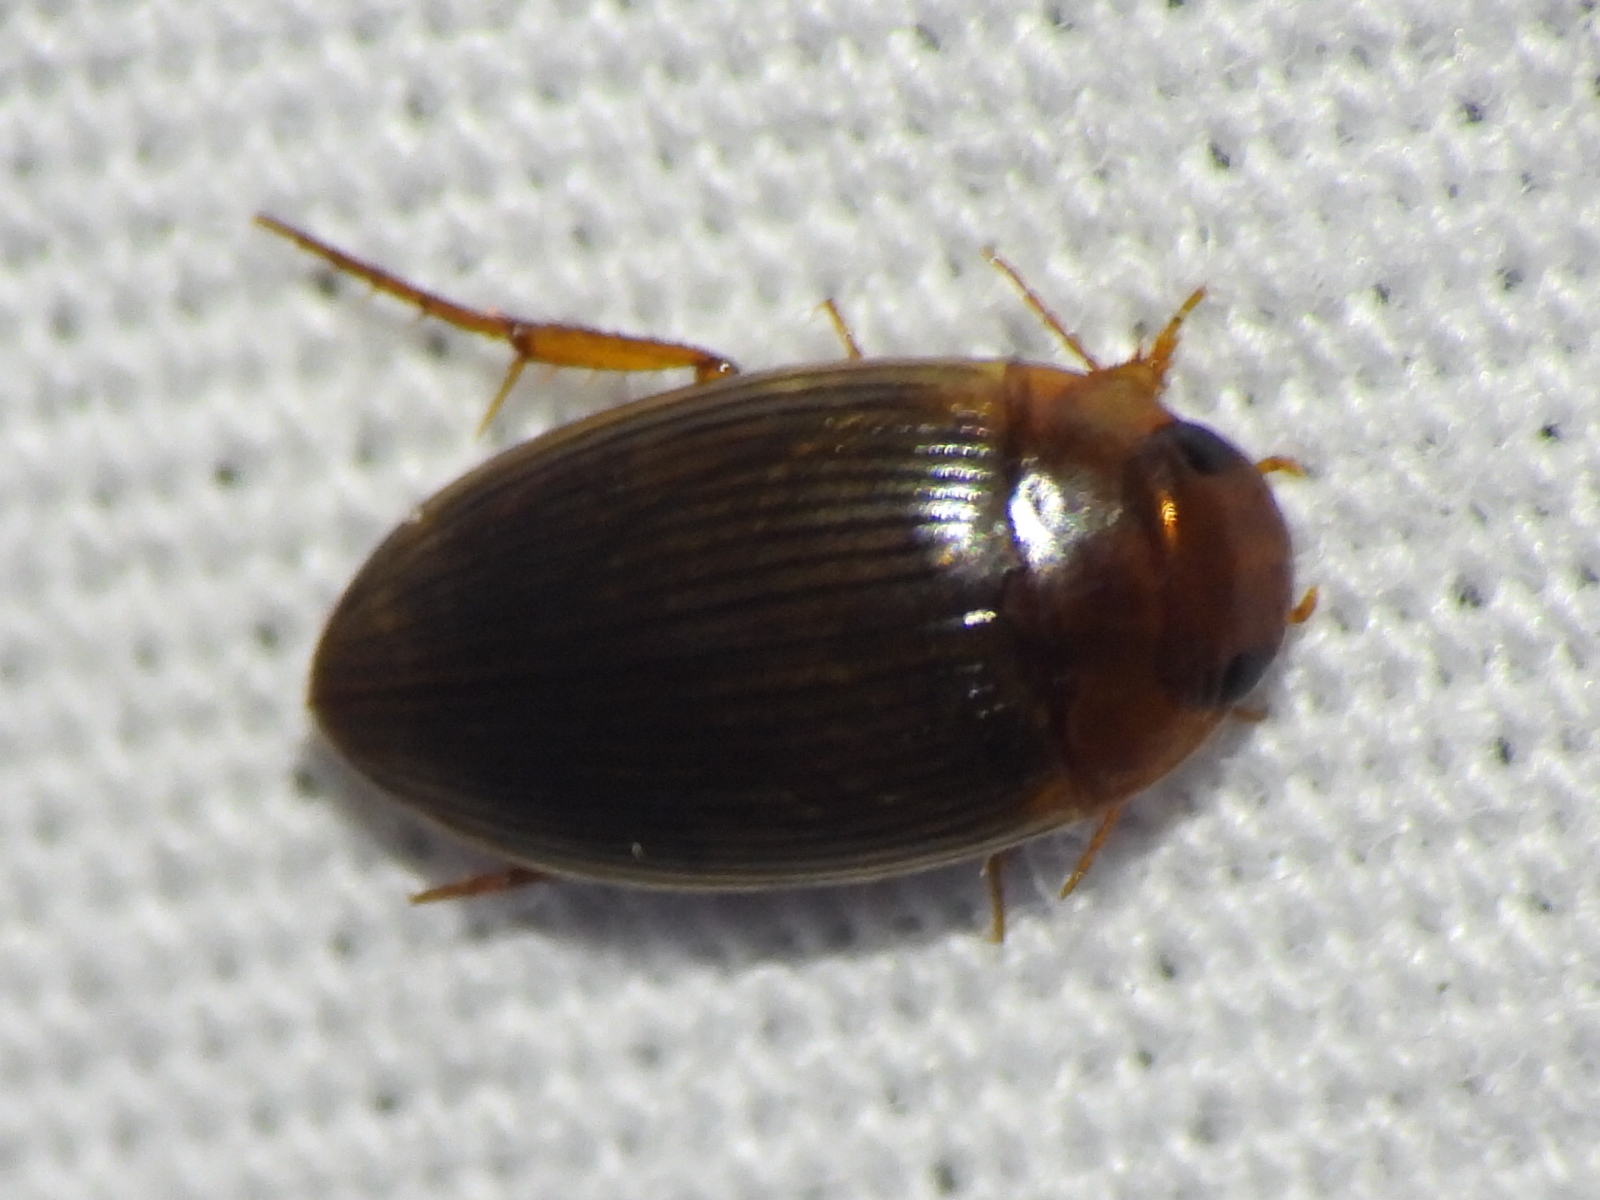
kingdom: Animalia
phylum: Arthropoda
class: Insecta
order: Coleoptera
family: Dytiscidae
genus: Copelatus
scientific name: Copelatus glyphicus
